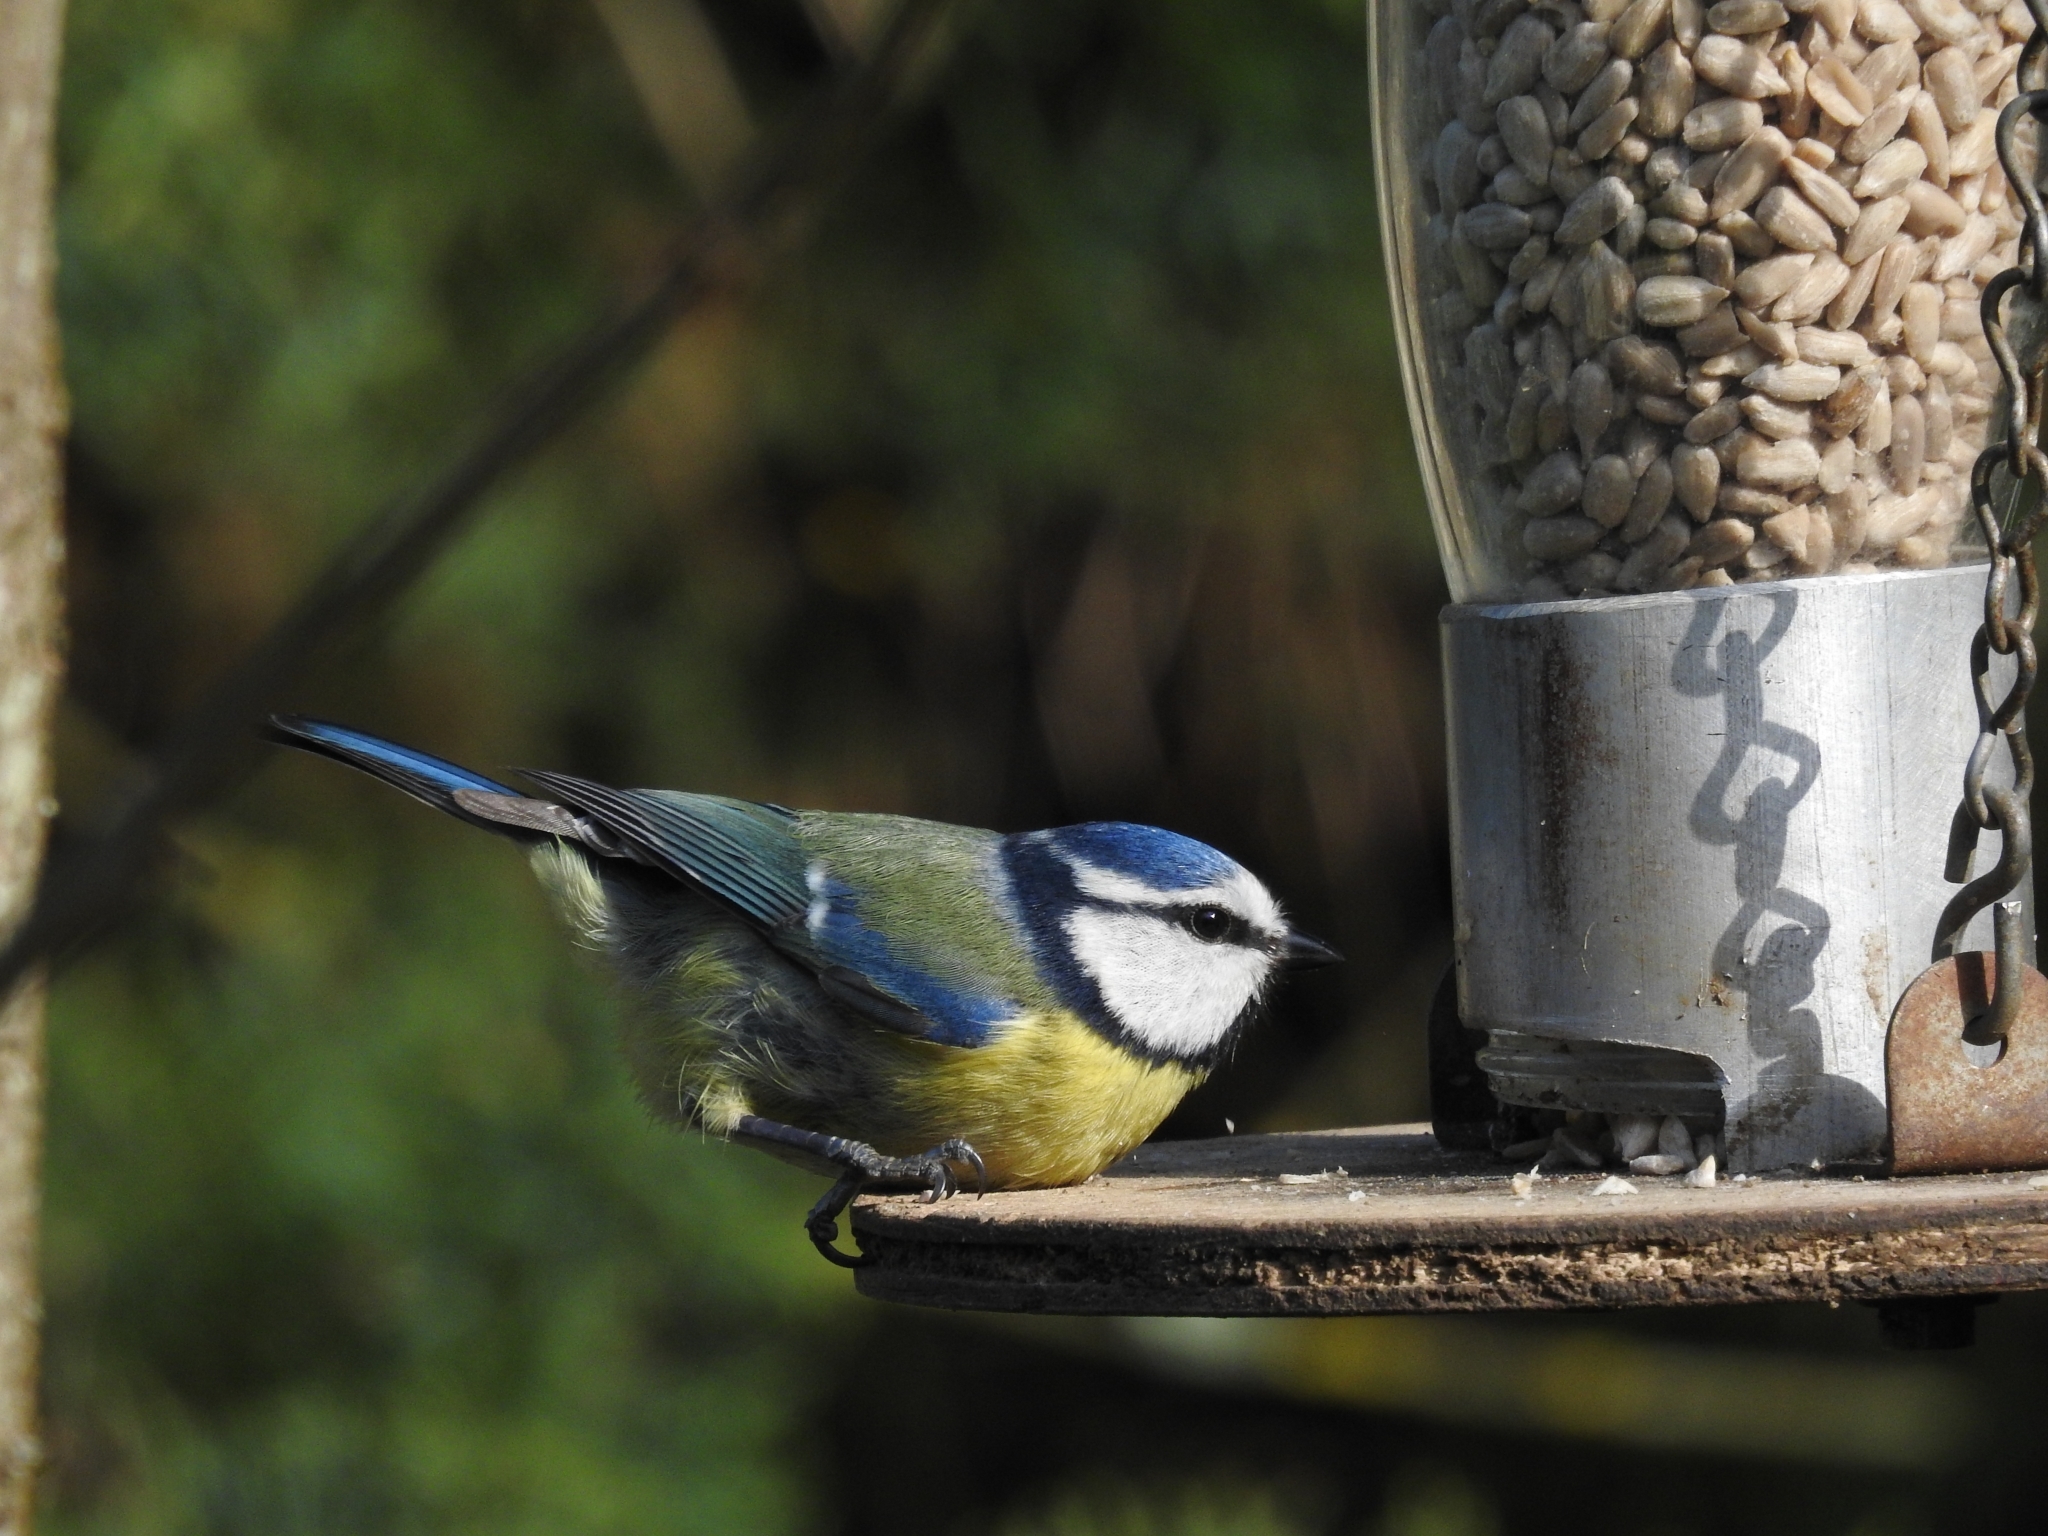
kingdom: Animalia
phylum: Chordata
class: Aves
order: Passeriformes
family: Paridae
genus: Cyanistes
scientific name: Cyanistes caeruleus
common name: Eurasian blue tit
